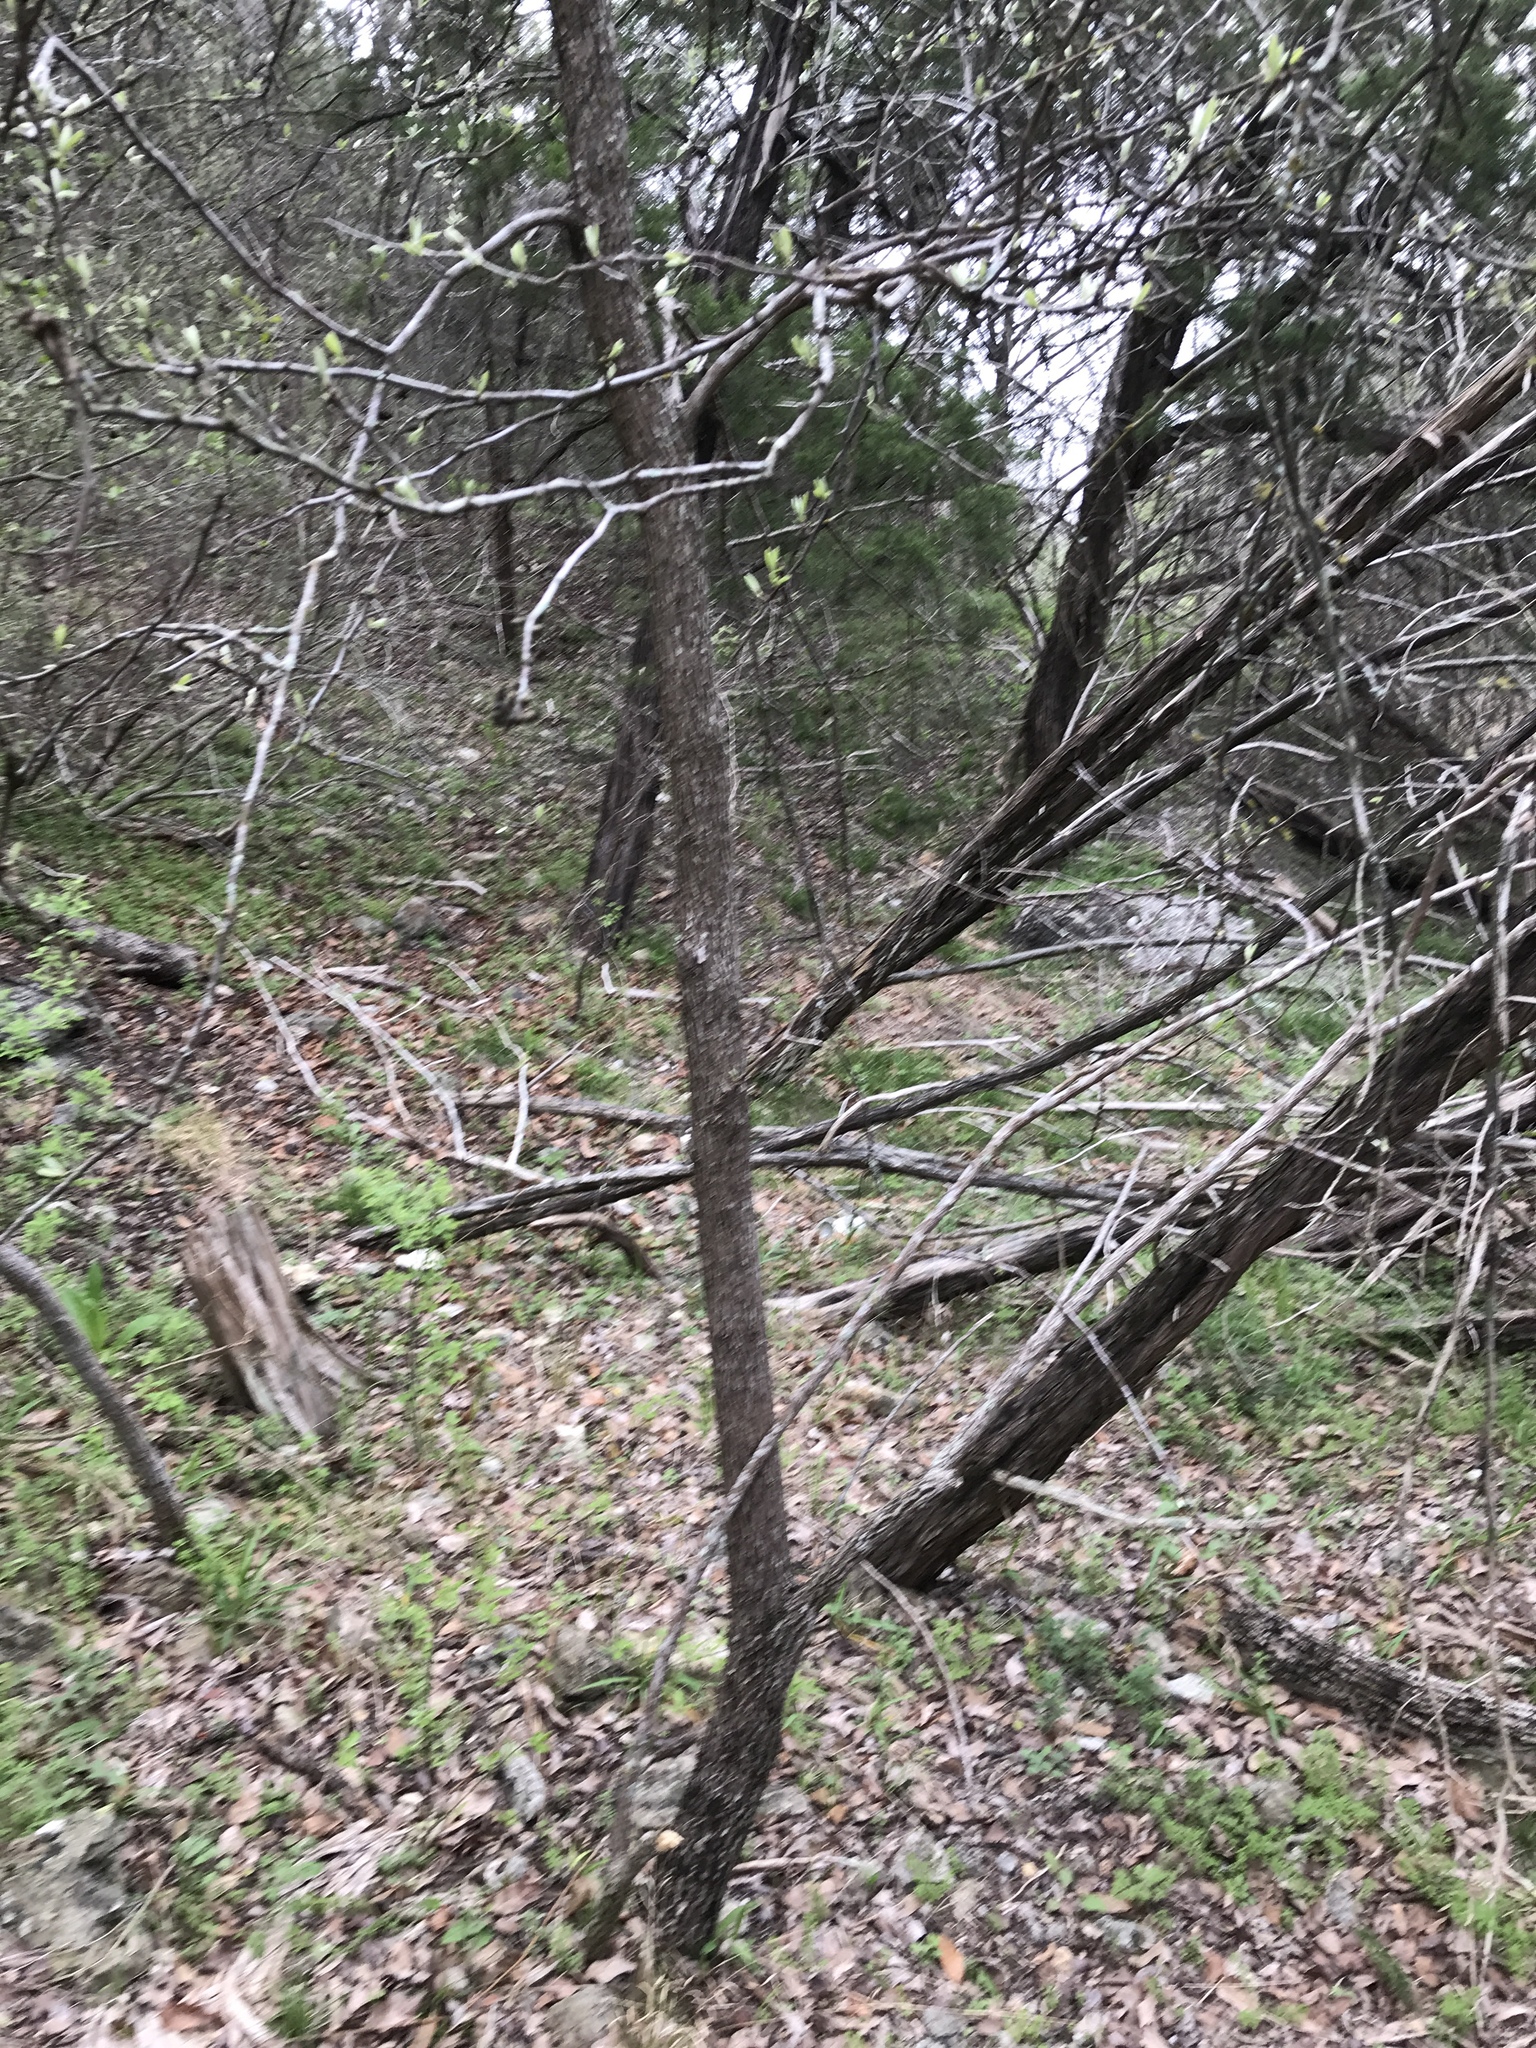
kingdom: Plantae
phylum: Tracheophyta
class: Magnoliopsida
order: Ericales
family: Sapotaceae
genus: Sideroxylon
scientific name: Sideroxylon lanuginosum
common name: Chittamwood
